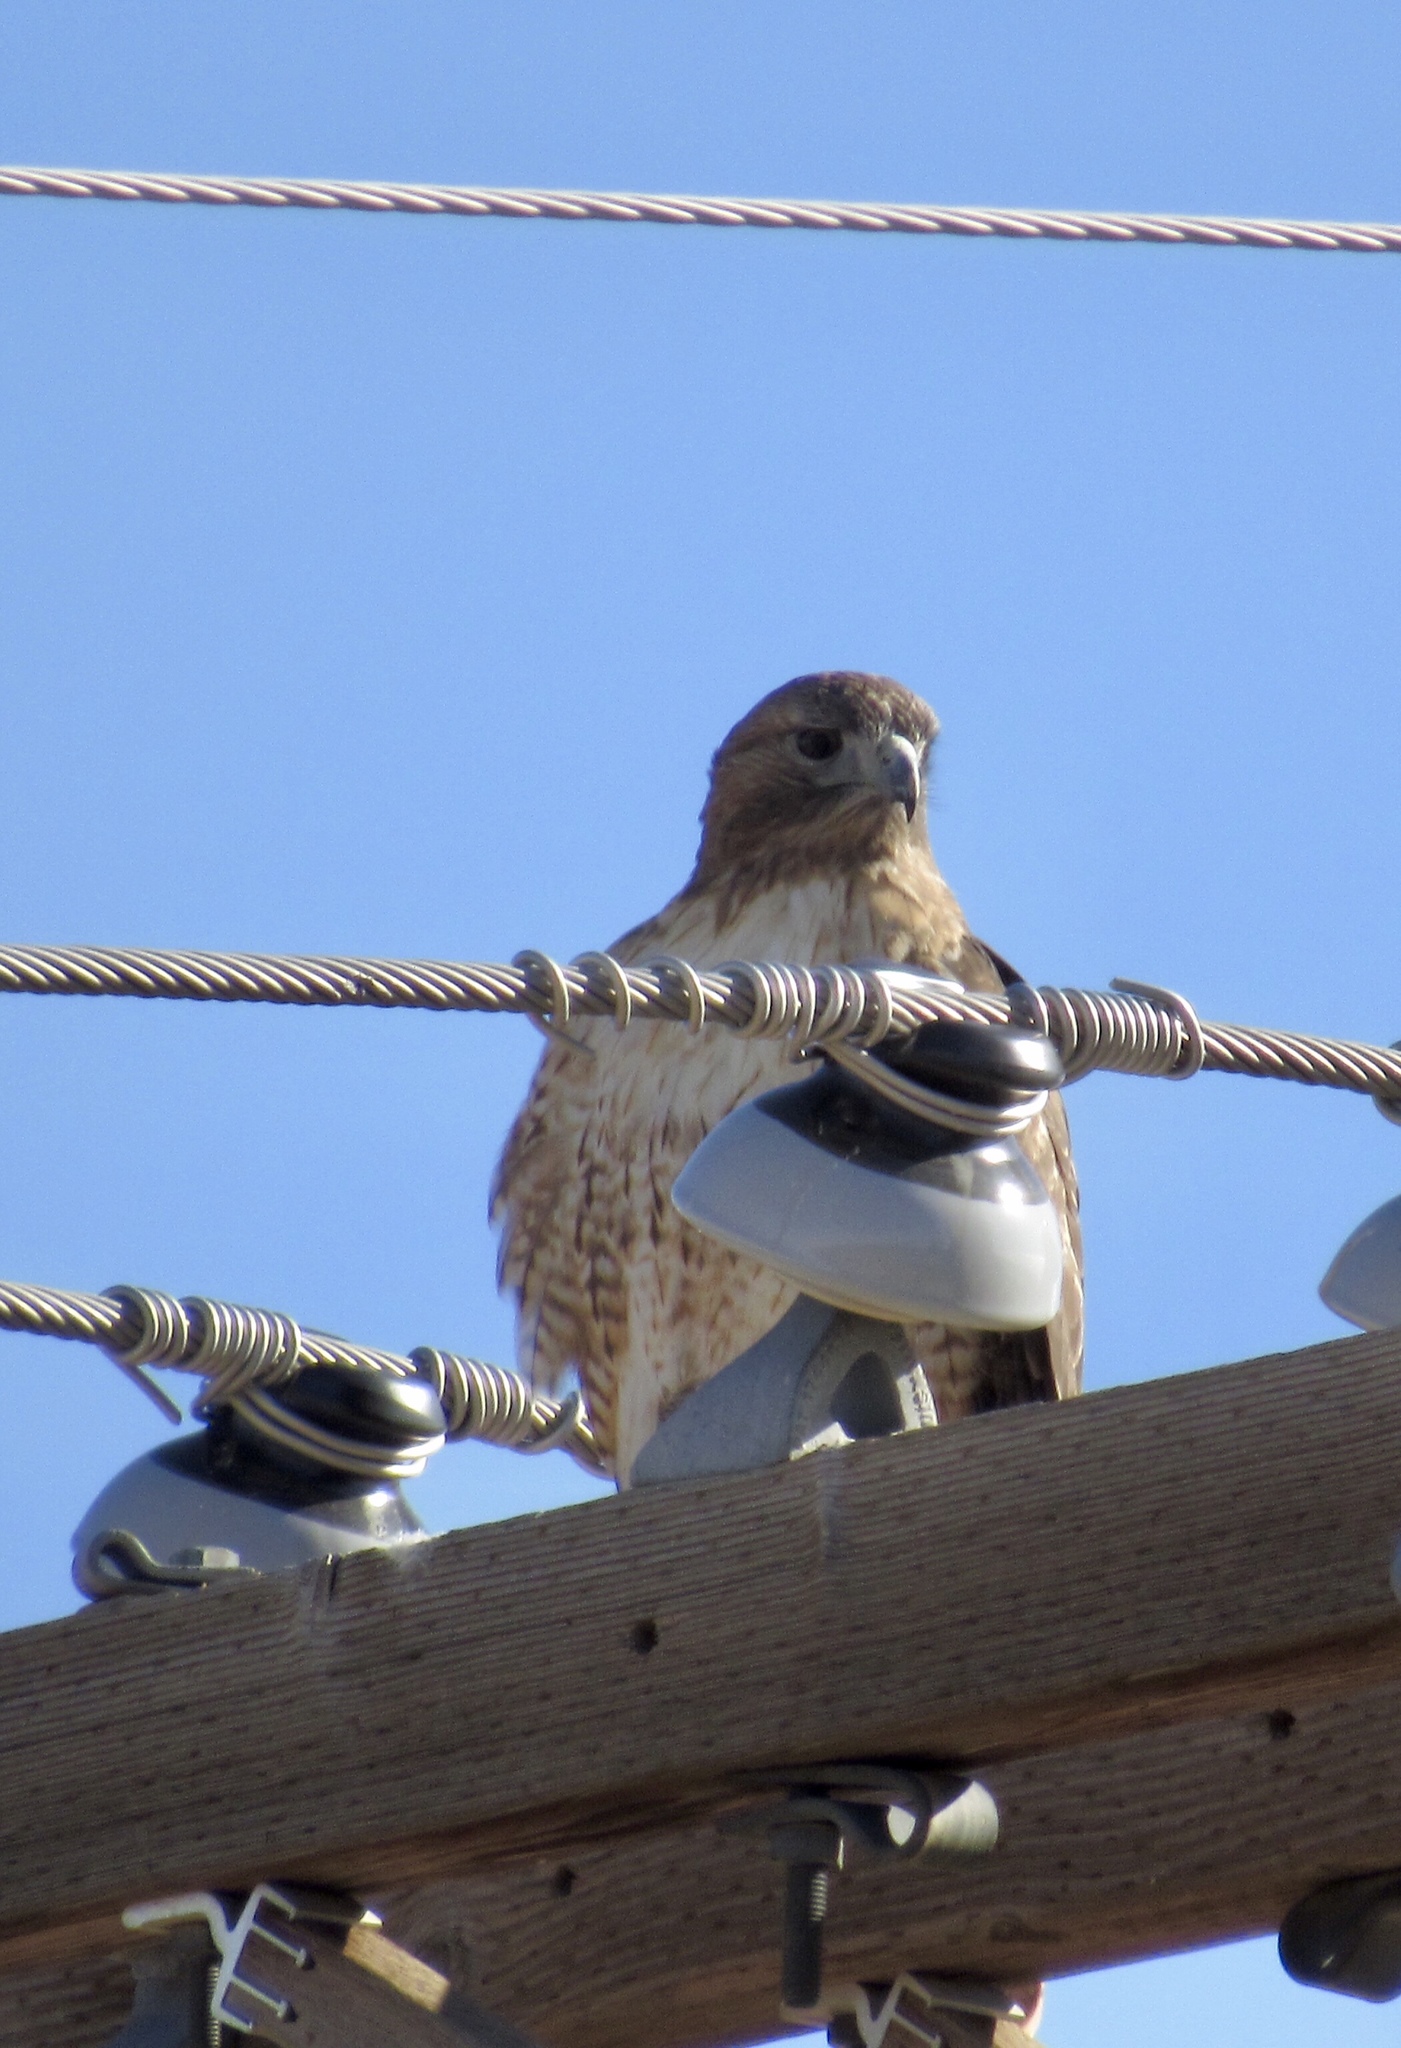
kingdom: Animalia
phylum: Chordata
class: Aves
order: Accipitriformes
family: Accipitridae
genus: Buteo
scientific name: Buteo jamaicensis
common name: Red-tailed hawk
